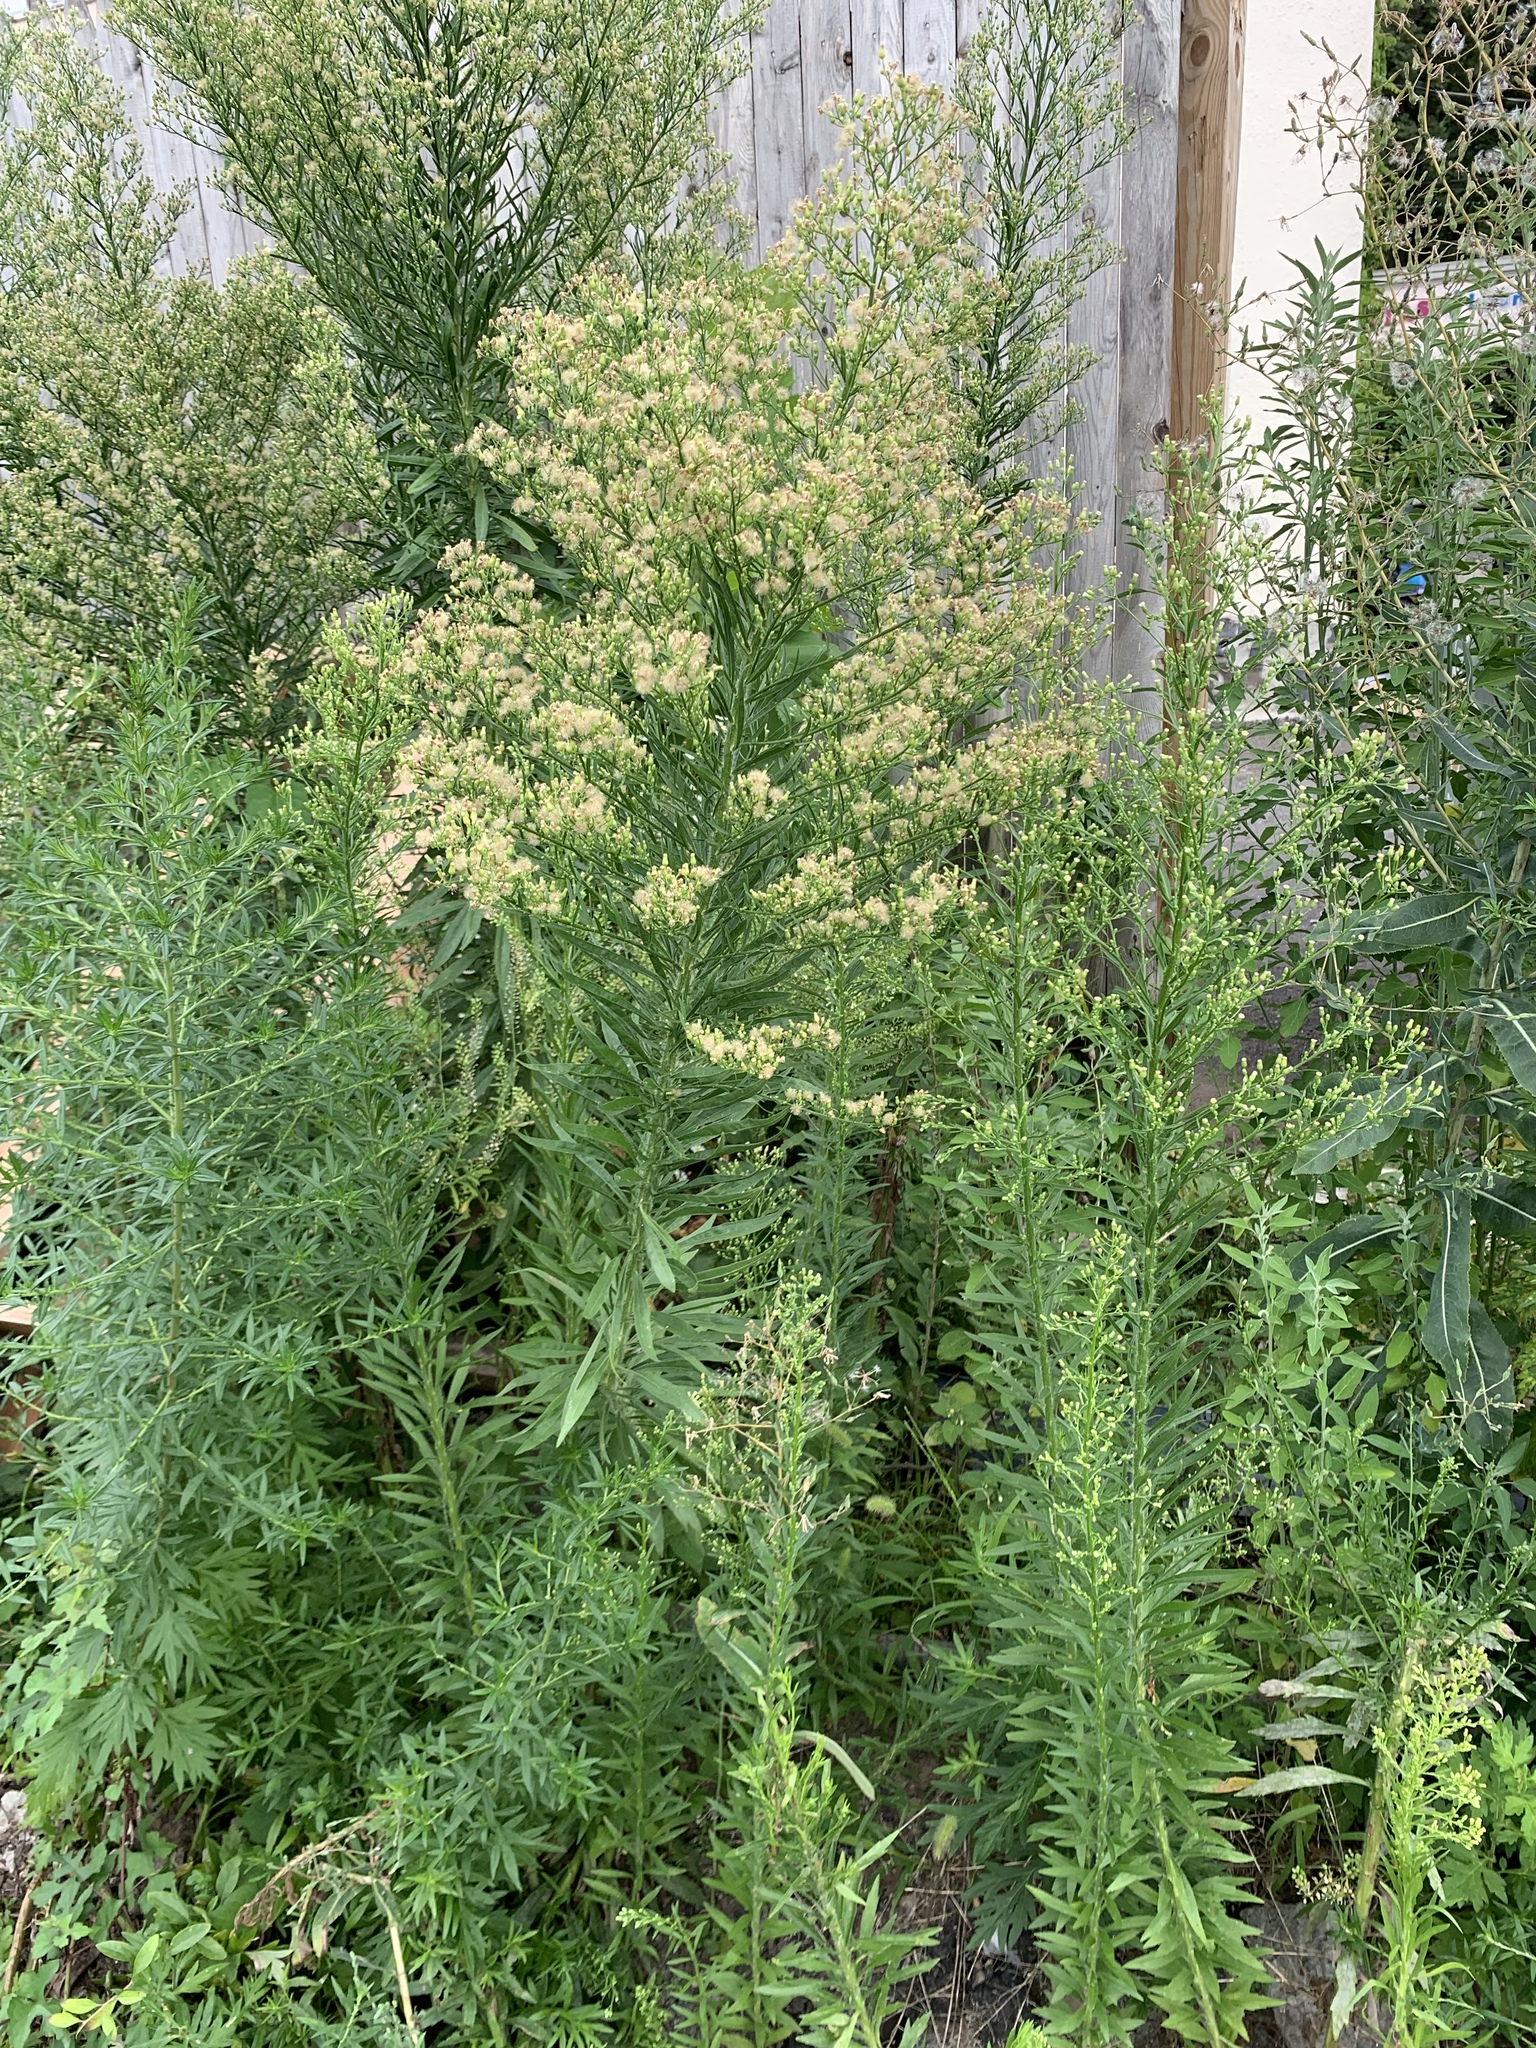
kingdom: Plantae
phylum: Tracheophyta
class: Magnoliopsida
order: Asterales
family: Asteraceae
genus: Erigeron
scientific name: Erigeron canadensis
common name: Canadian fleabane
